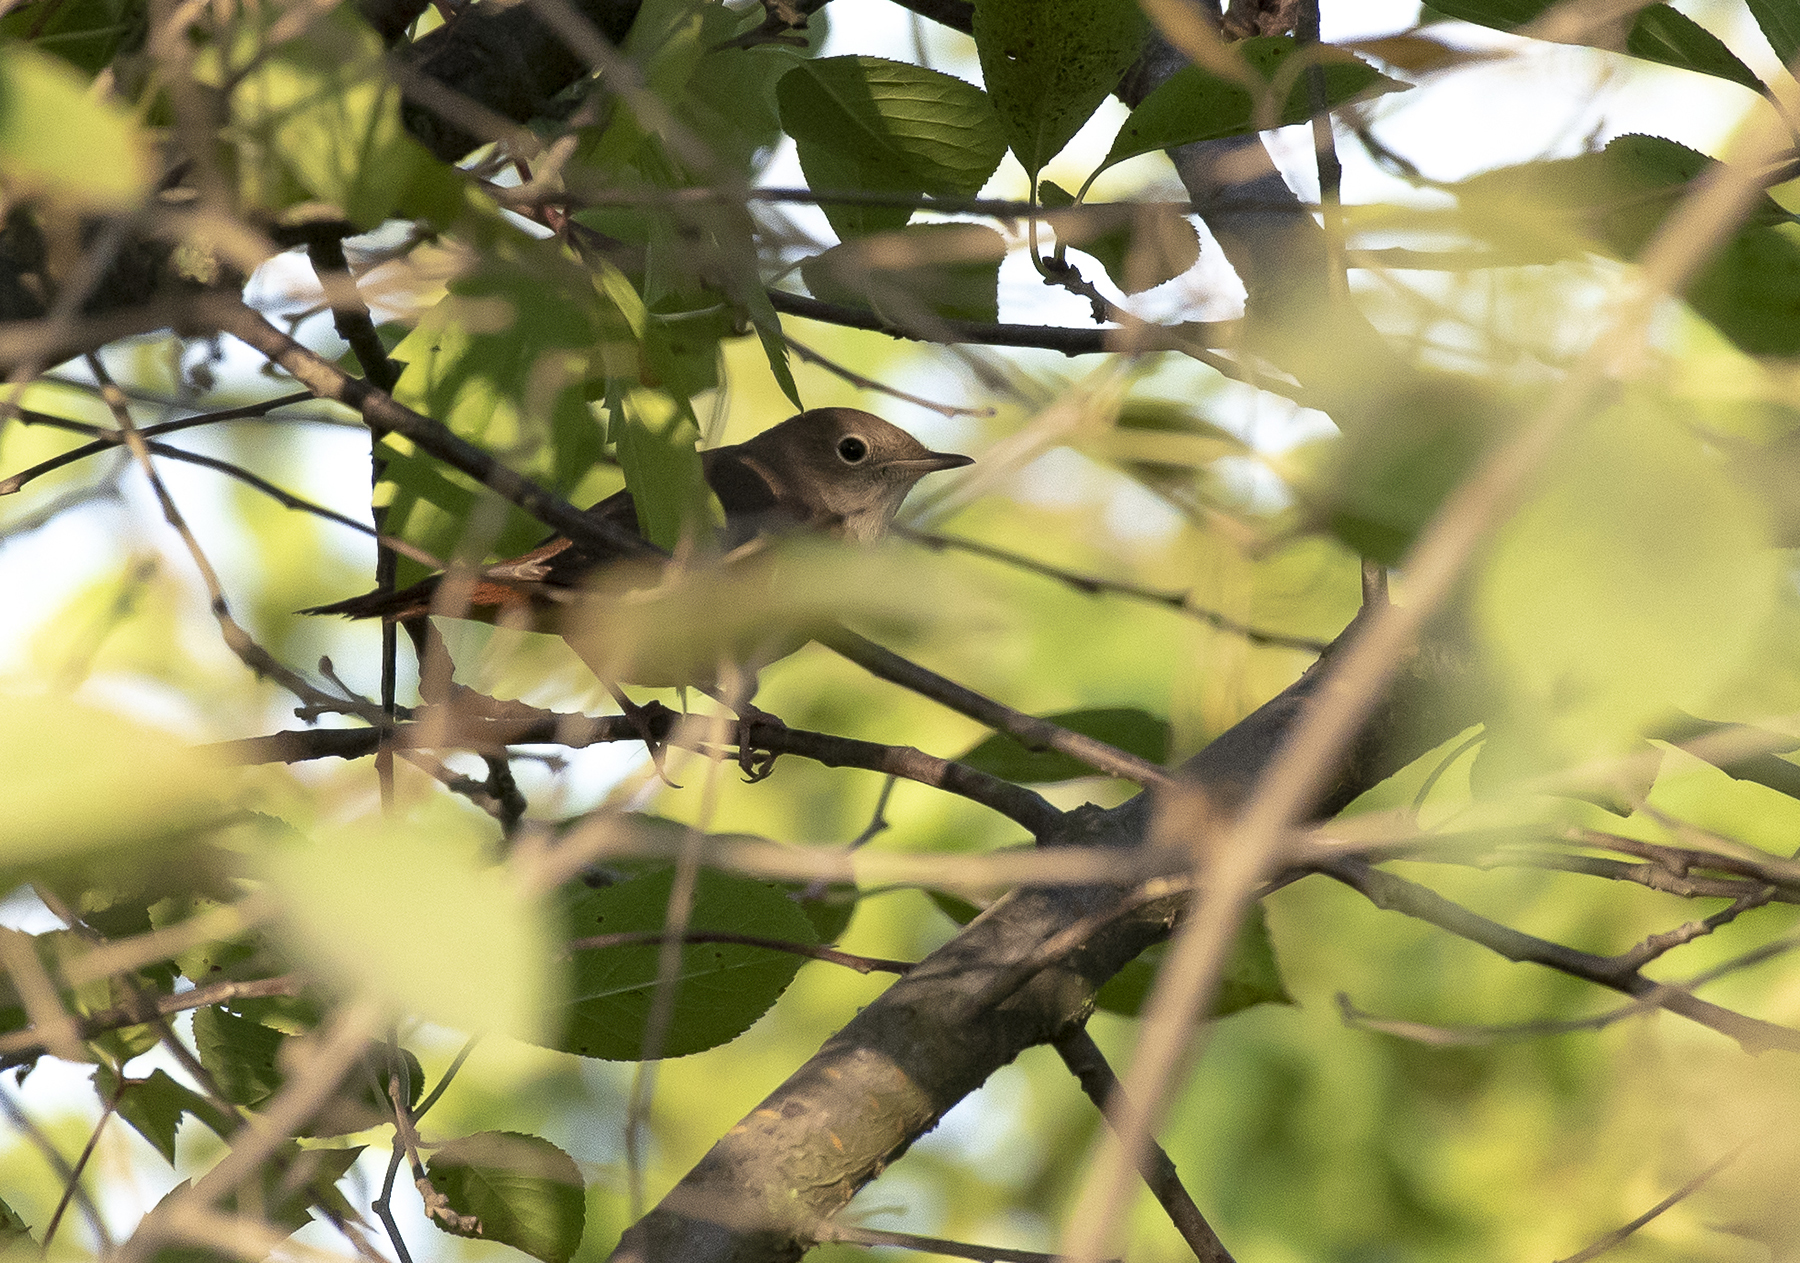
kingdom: Animalia
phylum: Chordata
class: Aves
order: Passeriformes
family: Muscicapidae
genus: Luscinia
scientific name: Luscinia megarhynchos
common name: Common nightingale
